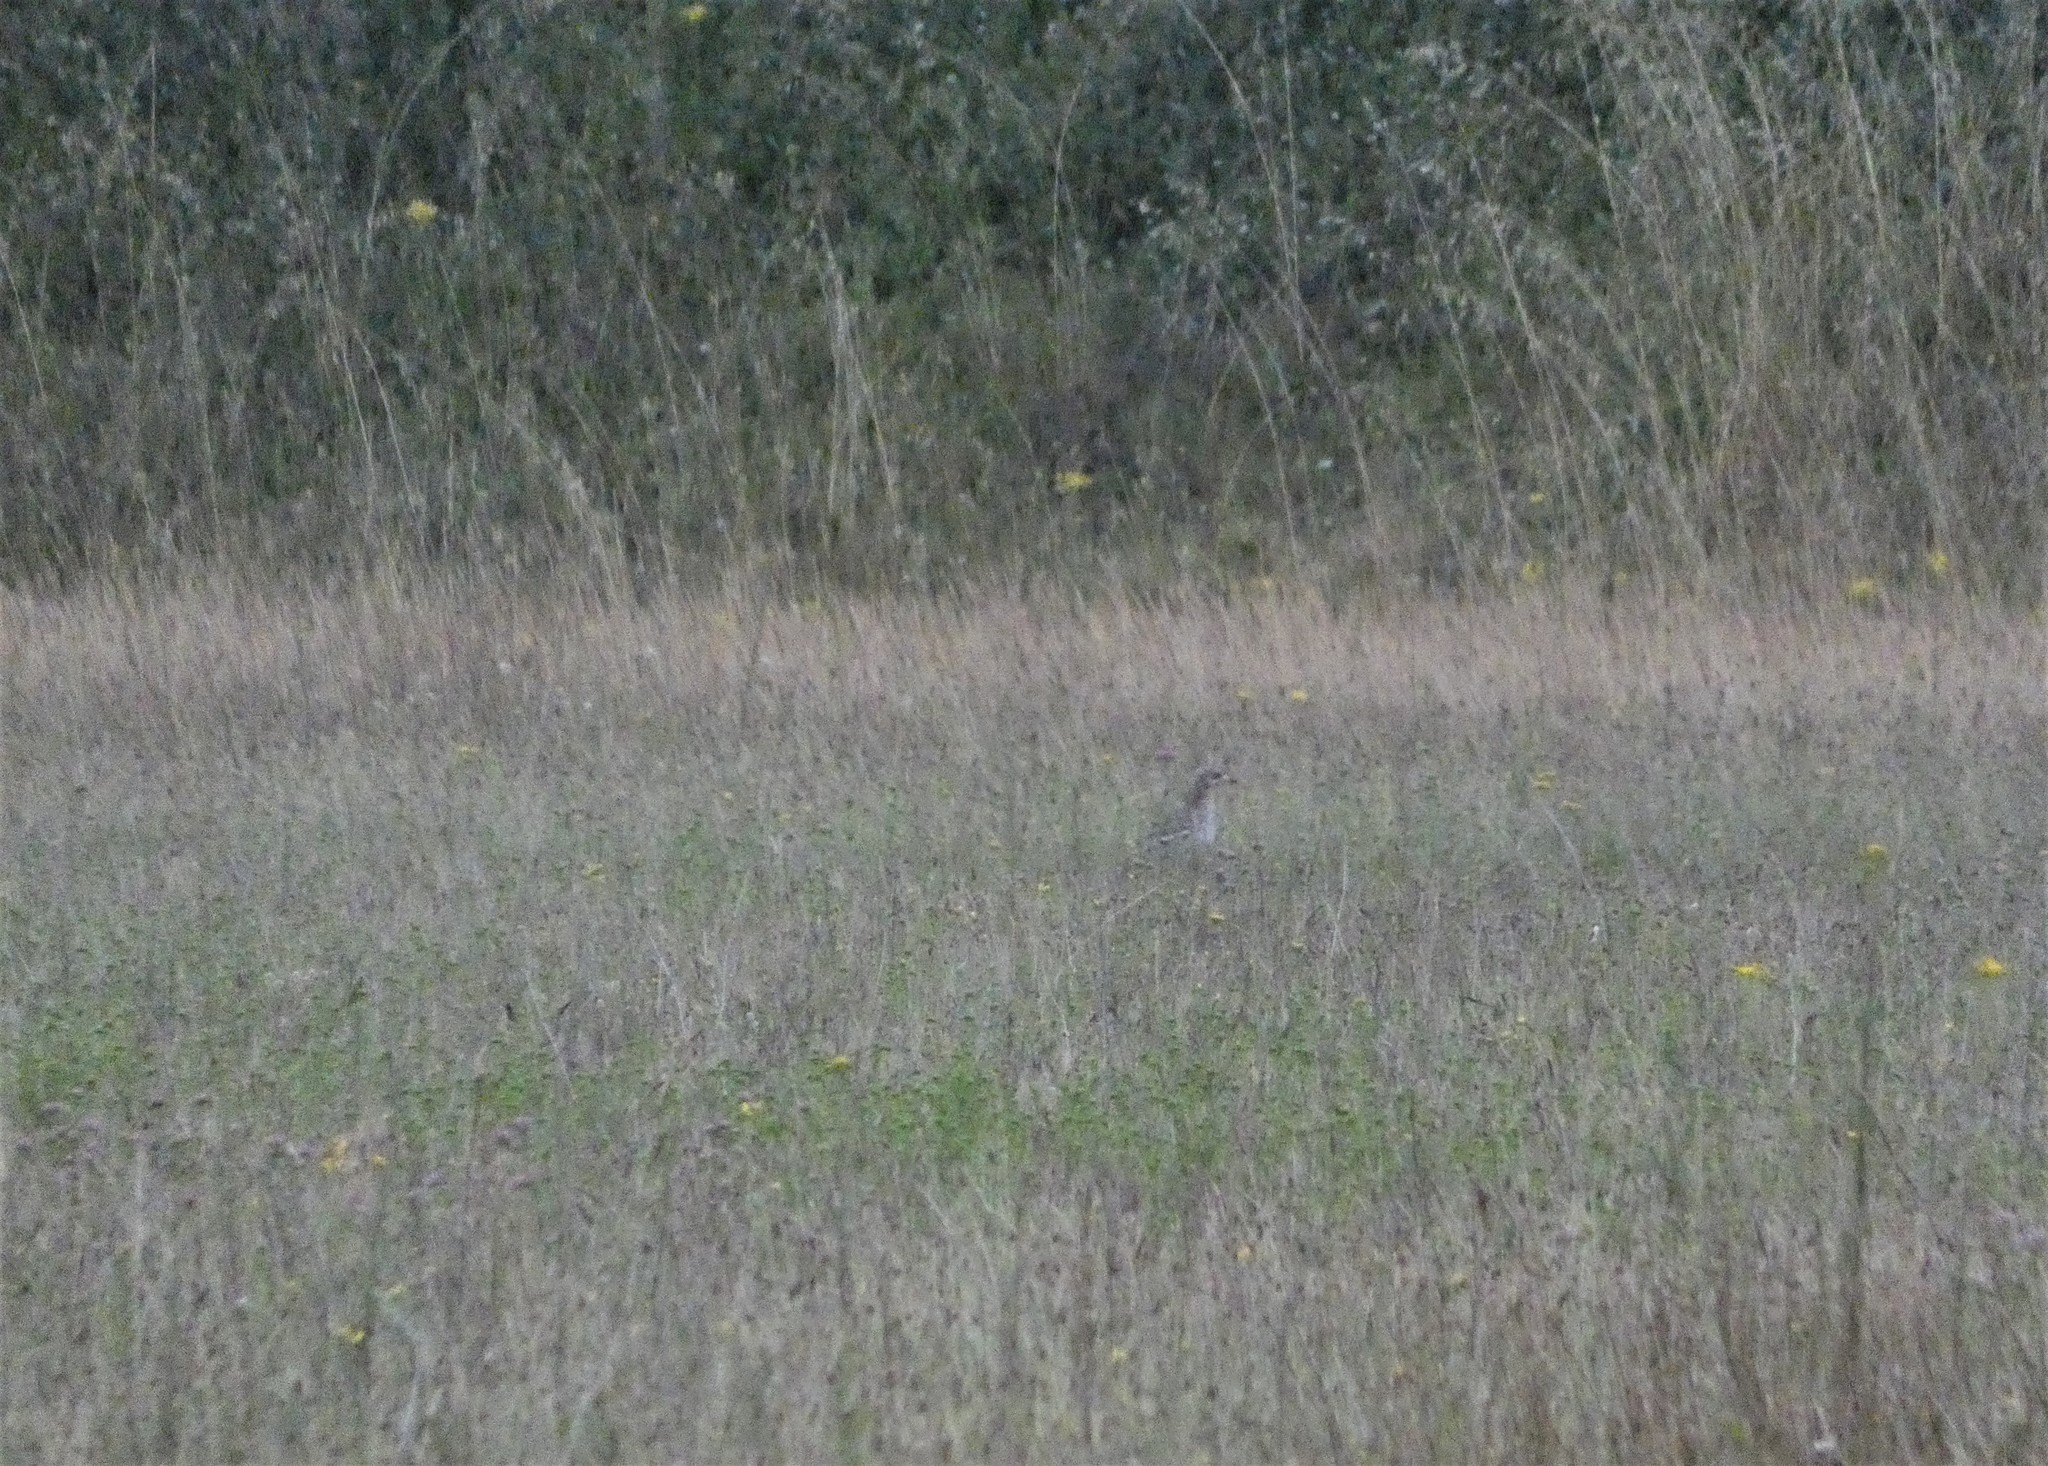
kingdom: Animalia
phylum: Chordata
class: Aves
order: Charadriiformes
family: Burhinidae
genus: Burhinus
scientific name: Burhinus oedicnemus
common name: Eurasian stone-curlew
